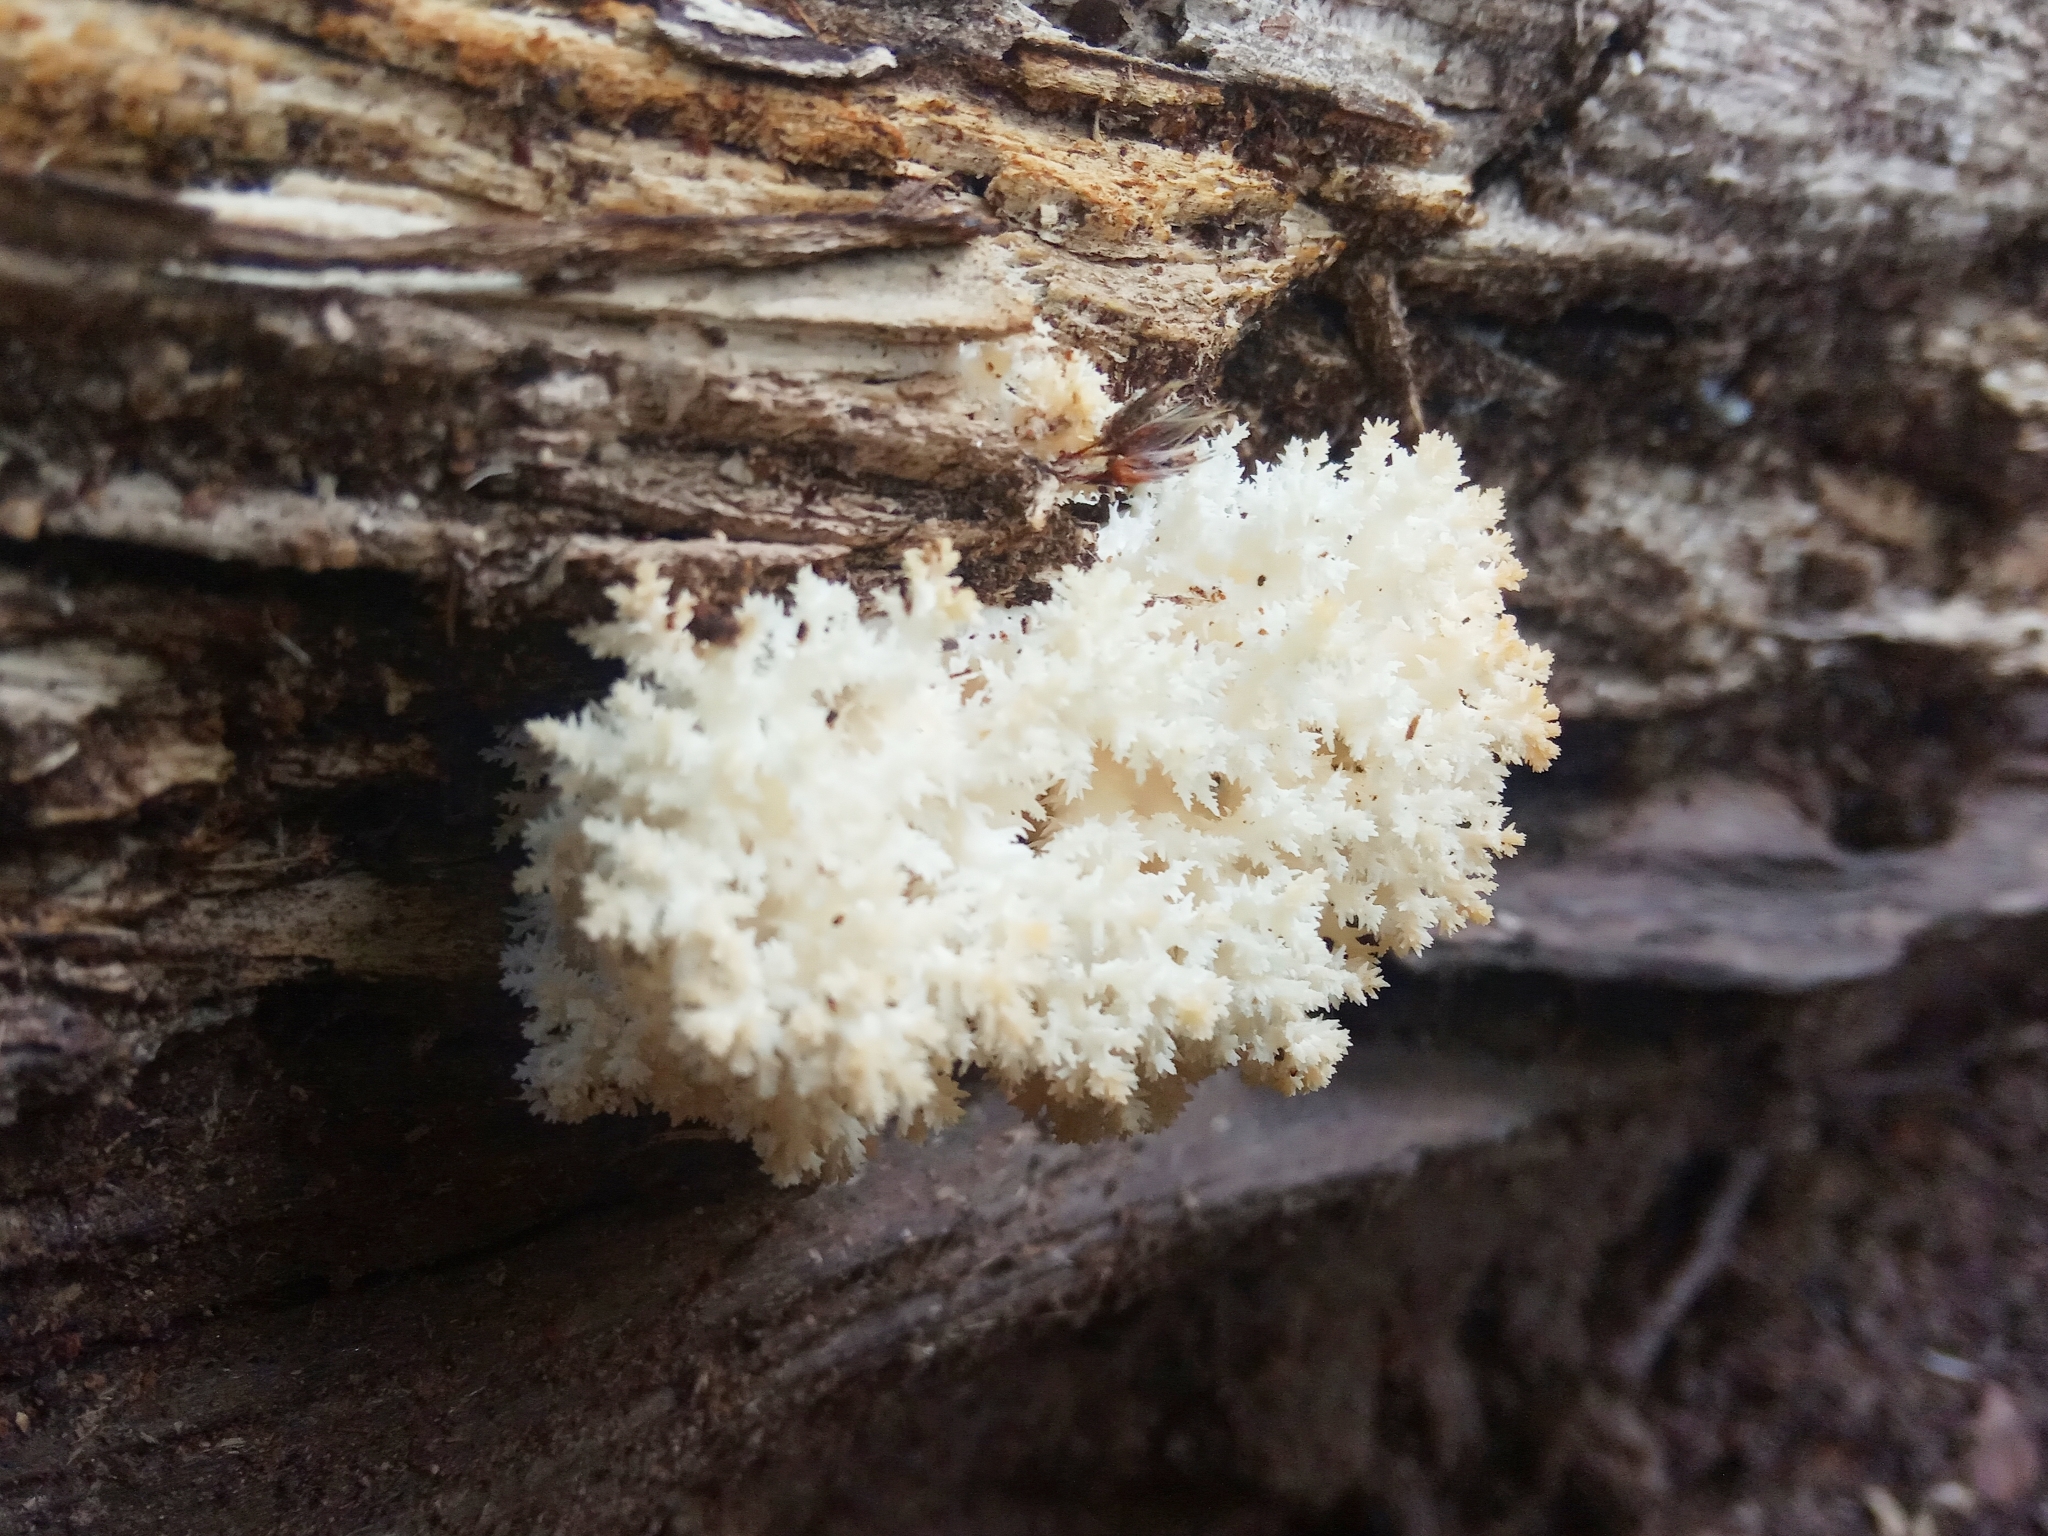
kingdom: Fungi
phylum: Basidiomycota
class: Agaricomycetes
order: Russulales
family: Hericiaceae
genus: Hericium
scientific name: Hericium coralloides
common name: Coral tooth
